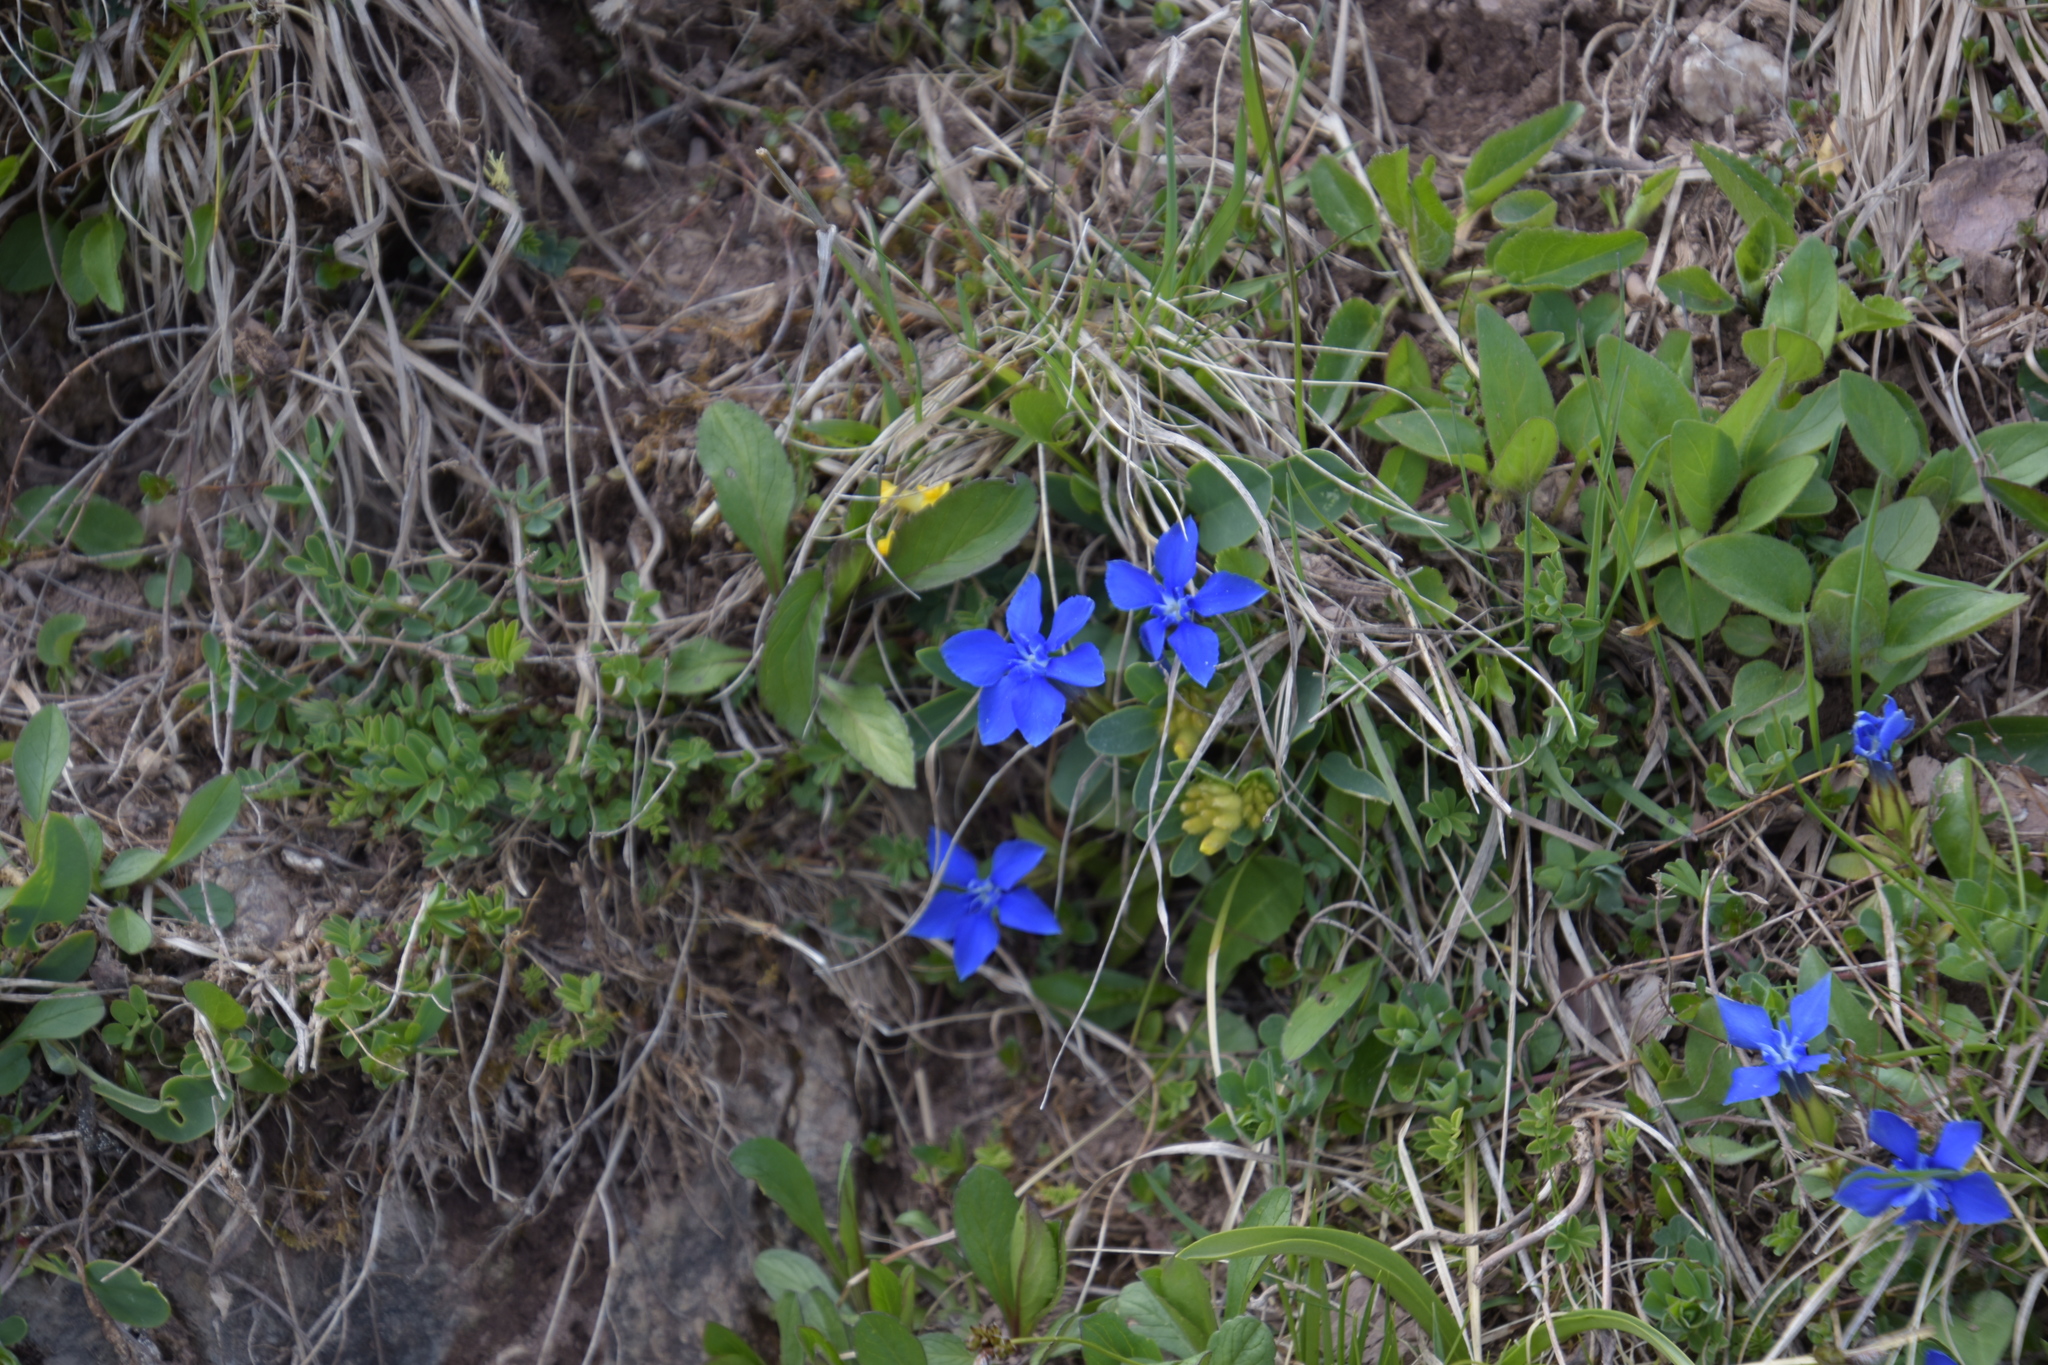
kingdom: Plantae
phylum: Tracheophyta
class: Magnoliopsida
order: Gentianales
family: Gentianaceae
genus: Gentiana
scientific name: Gentiana verna
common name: Spring gentian
